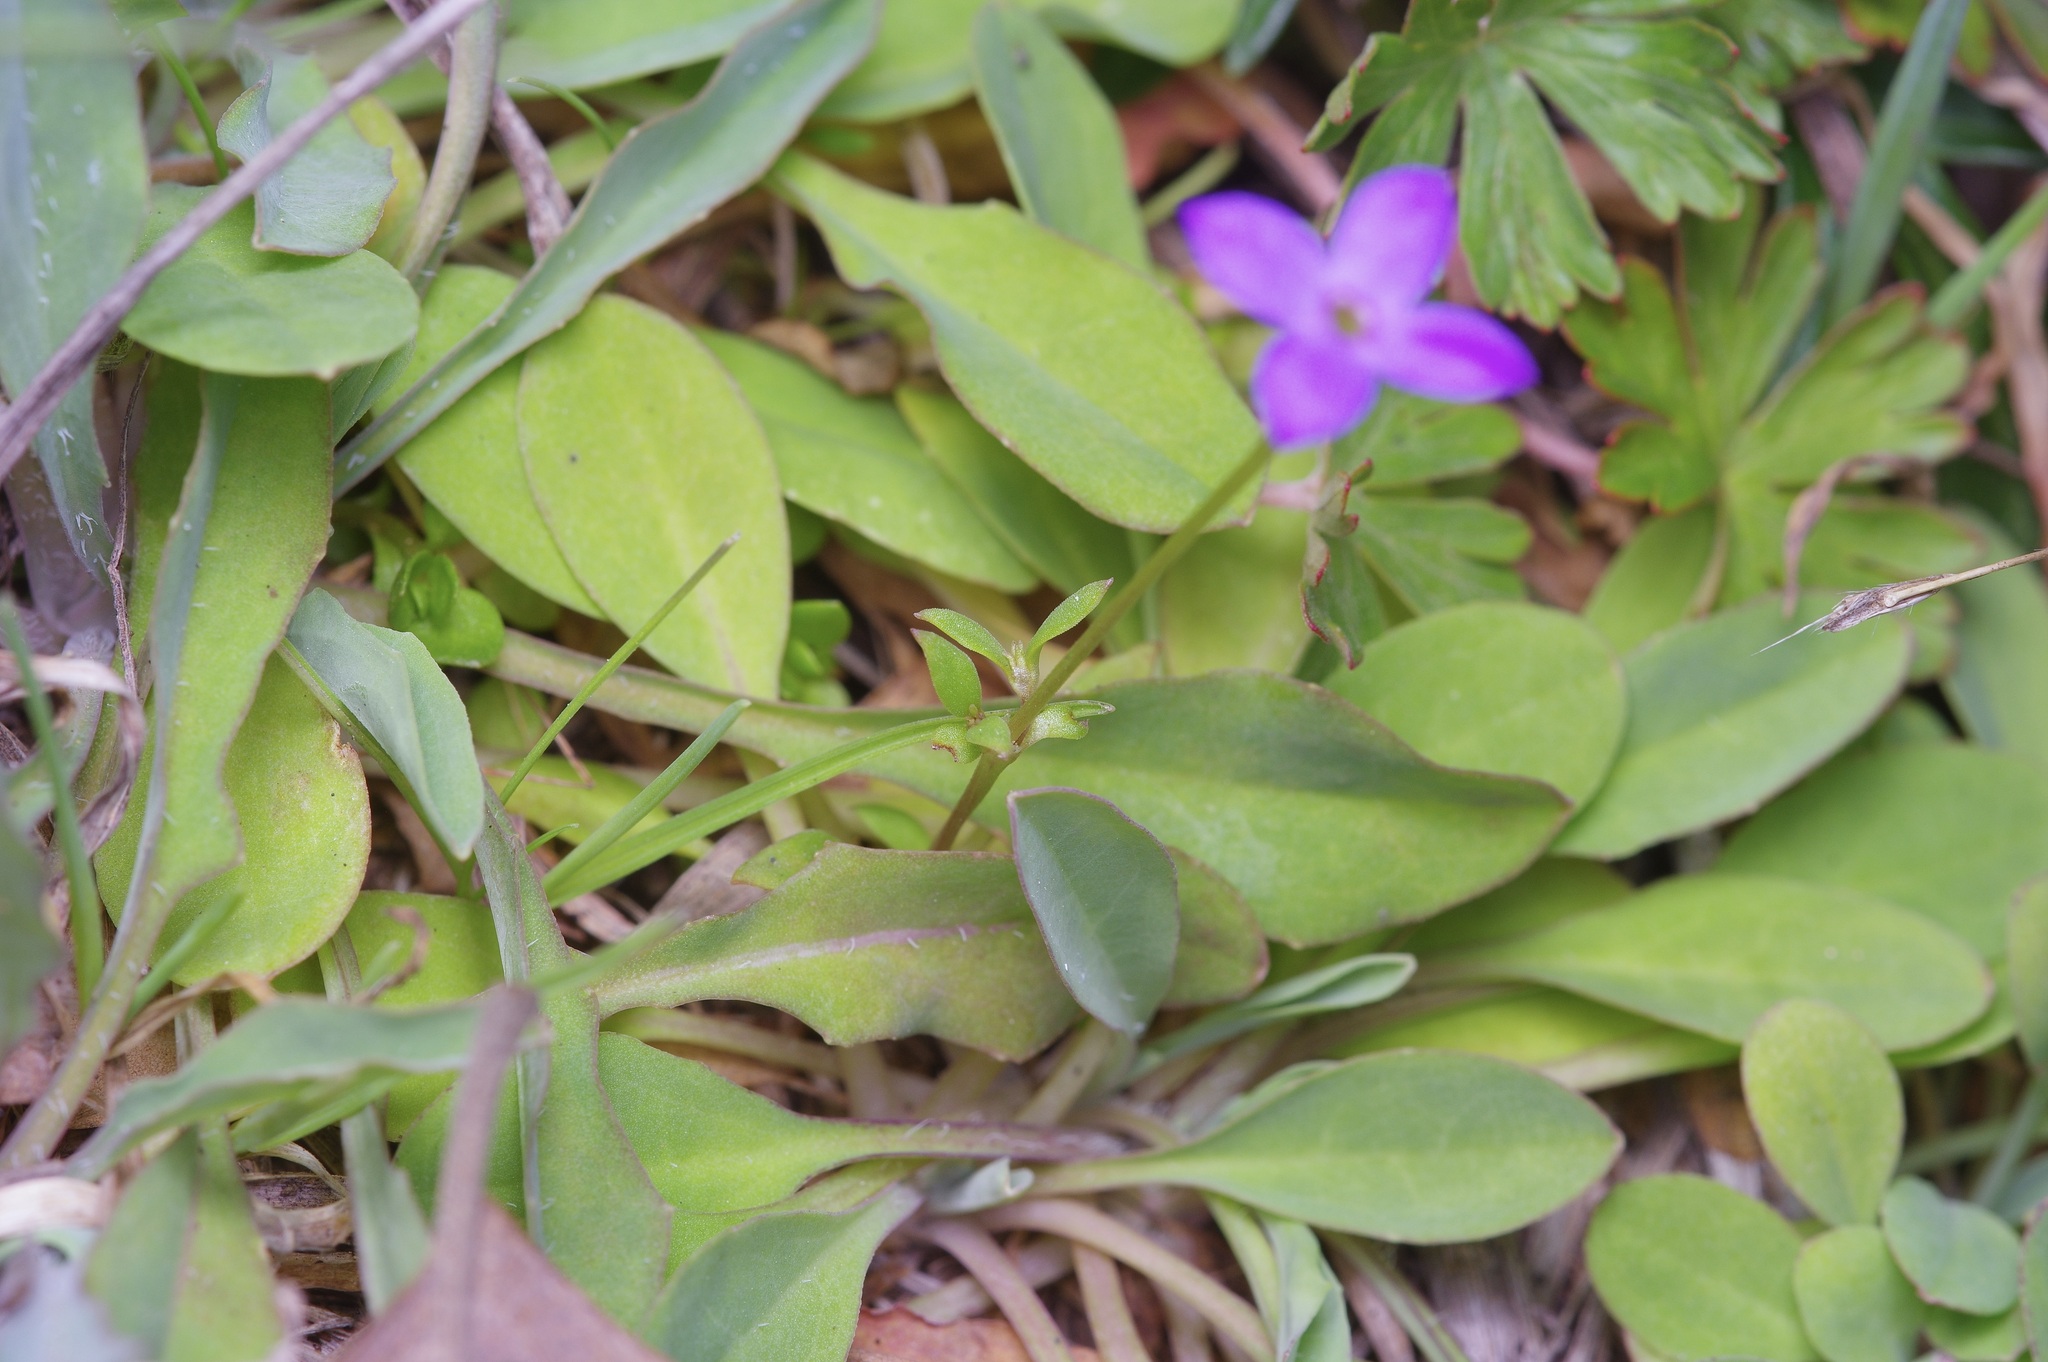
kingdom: Plantae
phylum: Tracheophyta
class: Magnoliopsida
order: Gentianales
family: Rubiaceae
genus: Houstonia
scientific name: Houstonia pusilla
